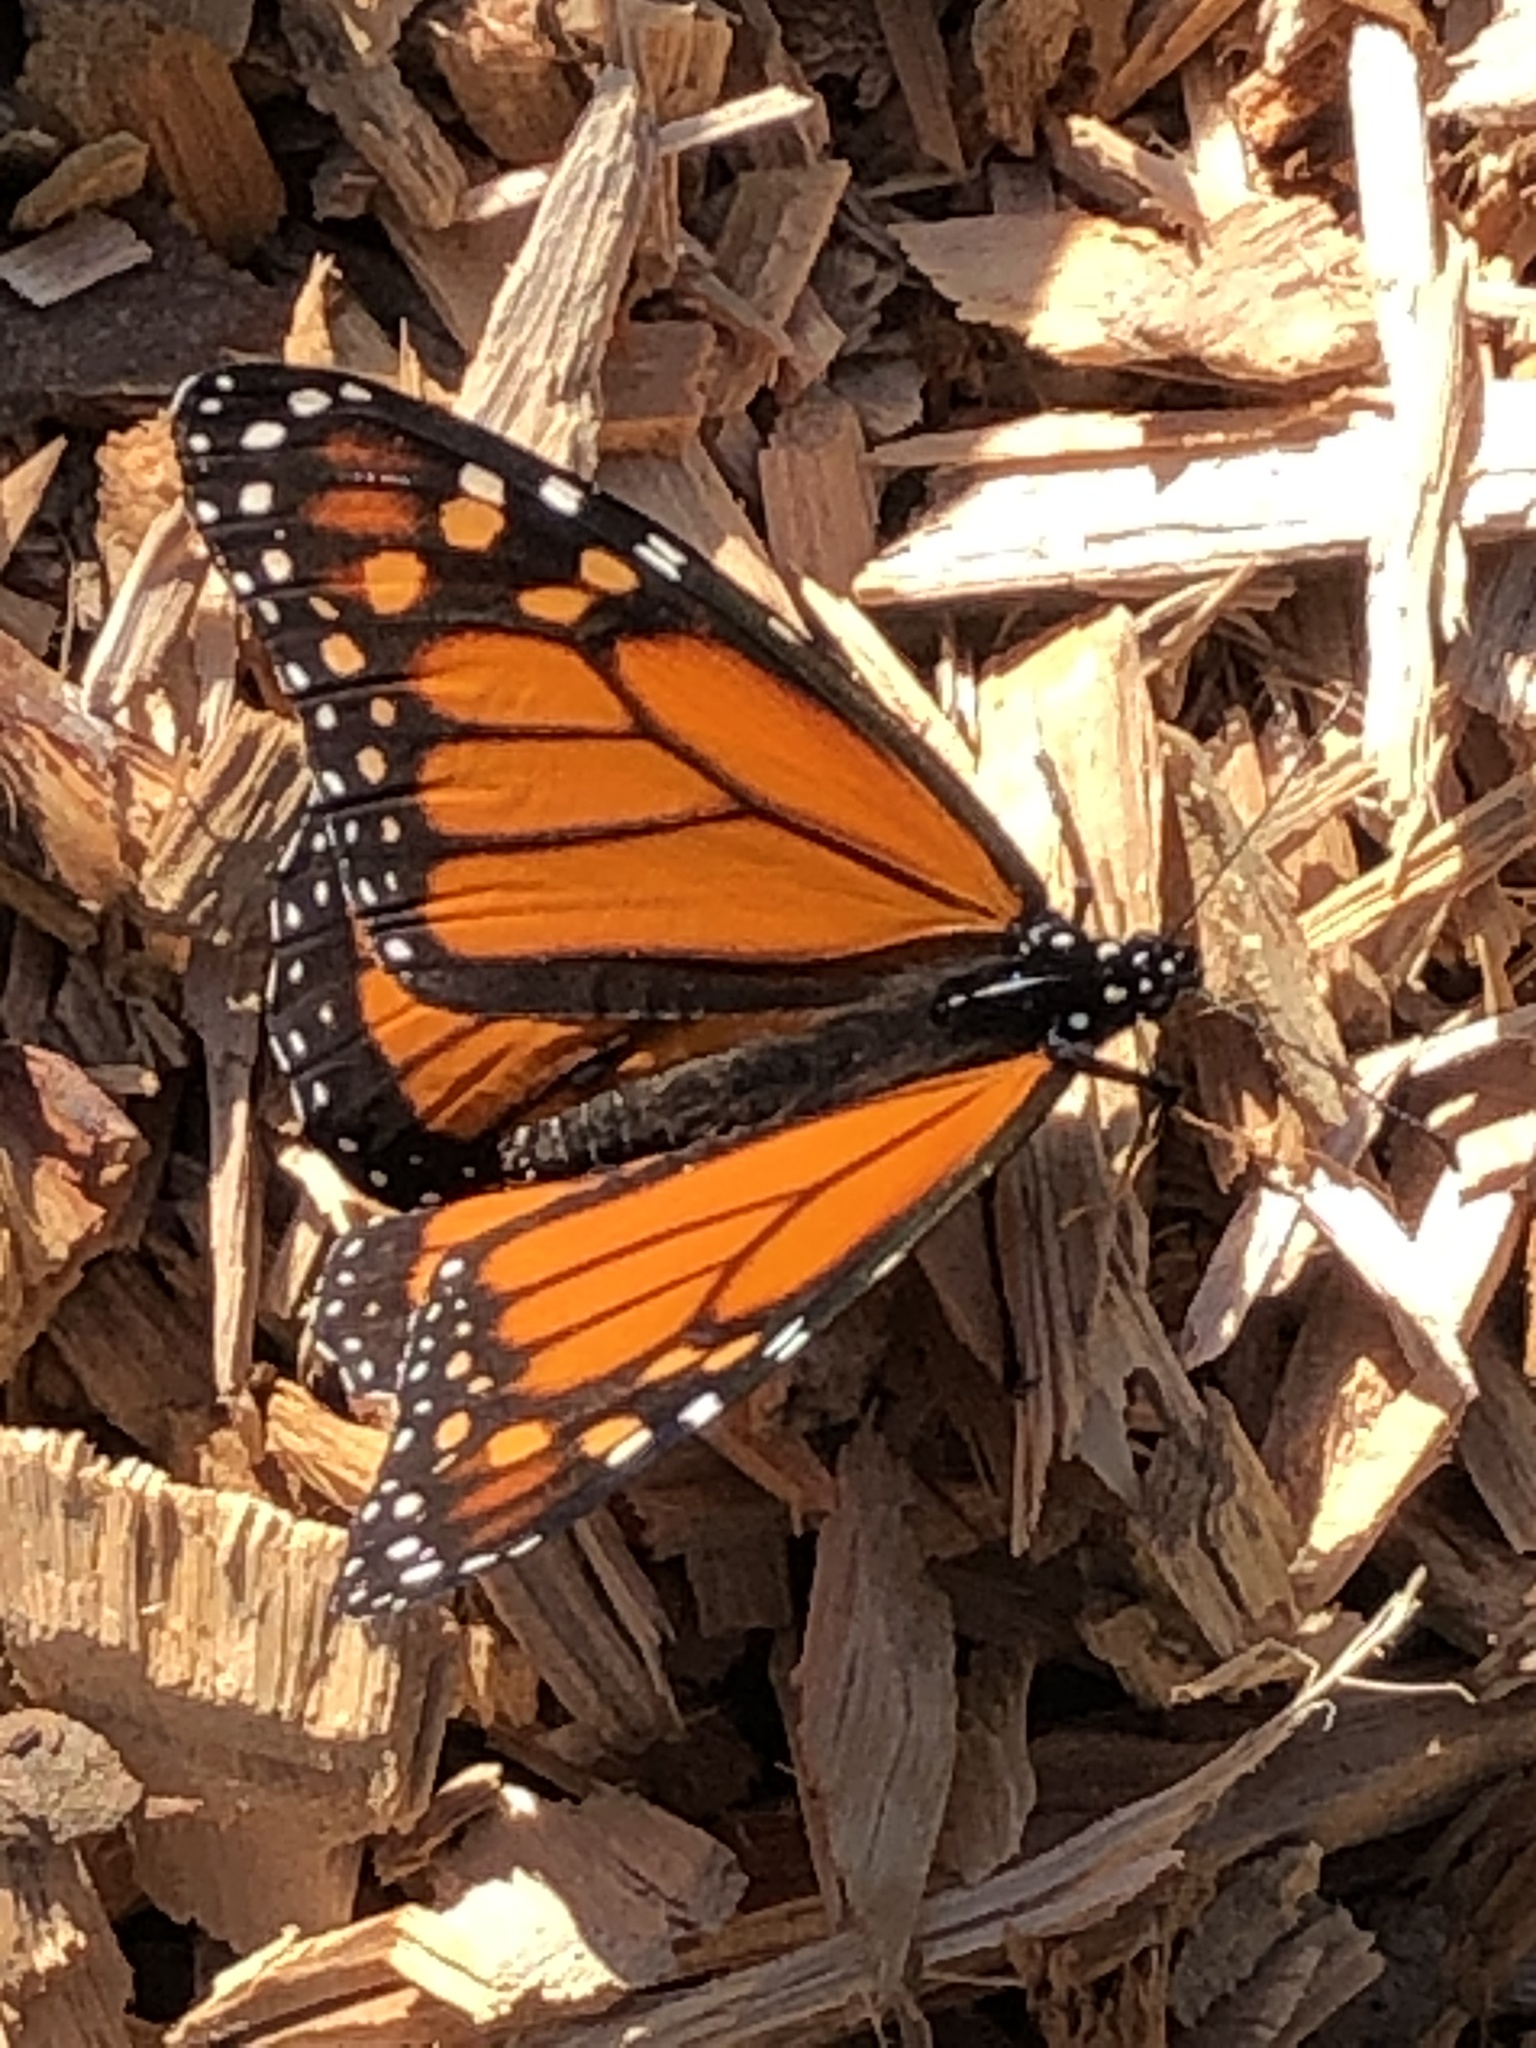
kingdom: Animalia
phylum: Arthropoda
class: Insecta
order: Lepidoptera
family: Nymphalidae
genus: Danaus
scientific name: Danaus plexippus
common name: Monarch
